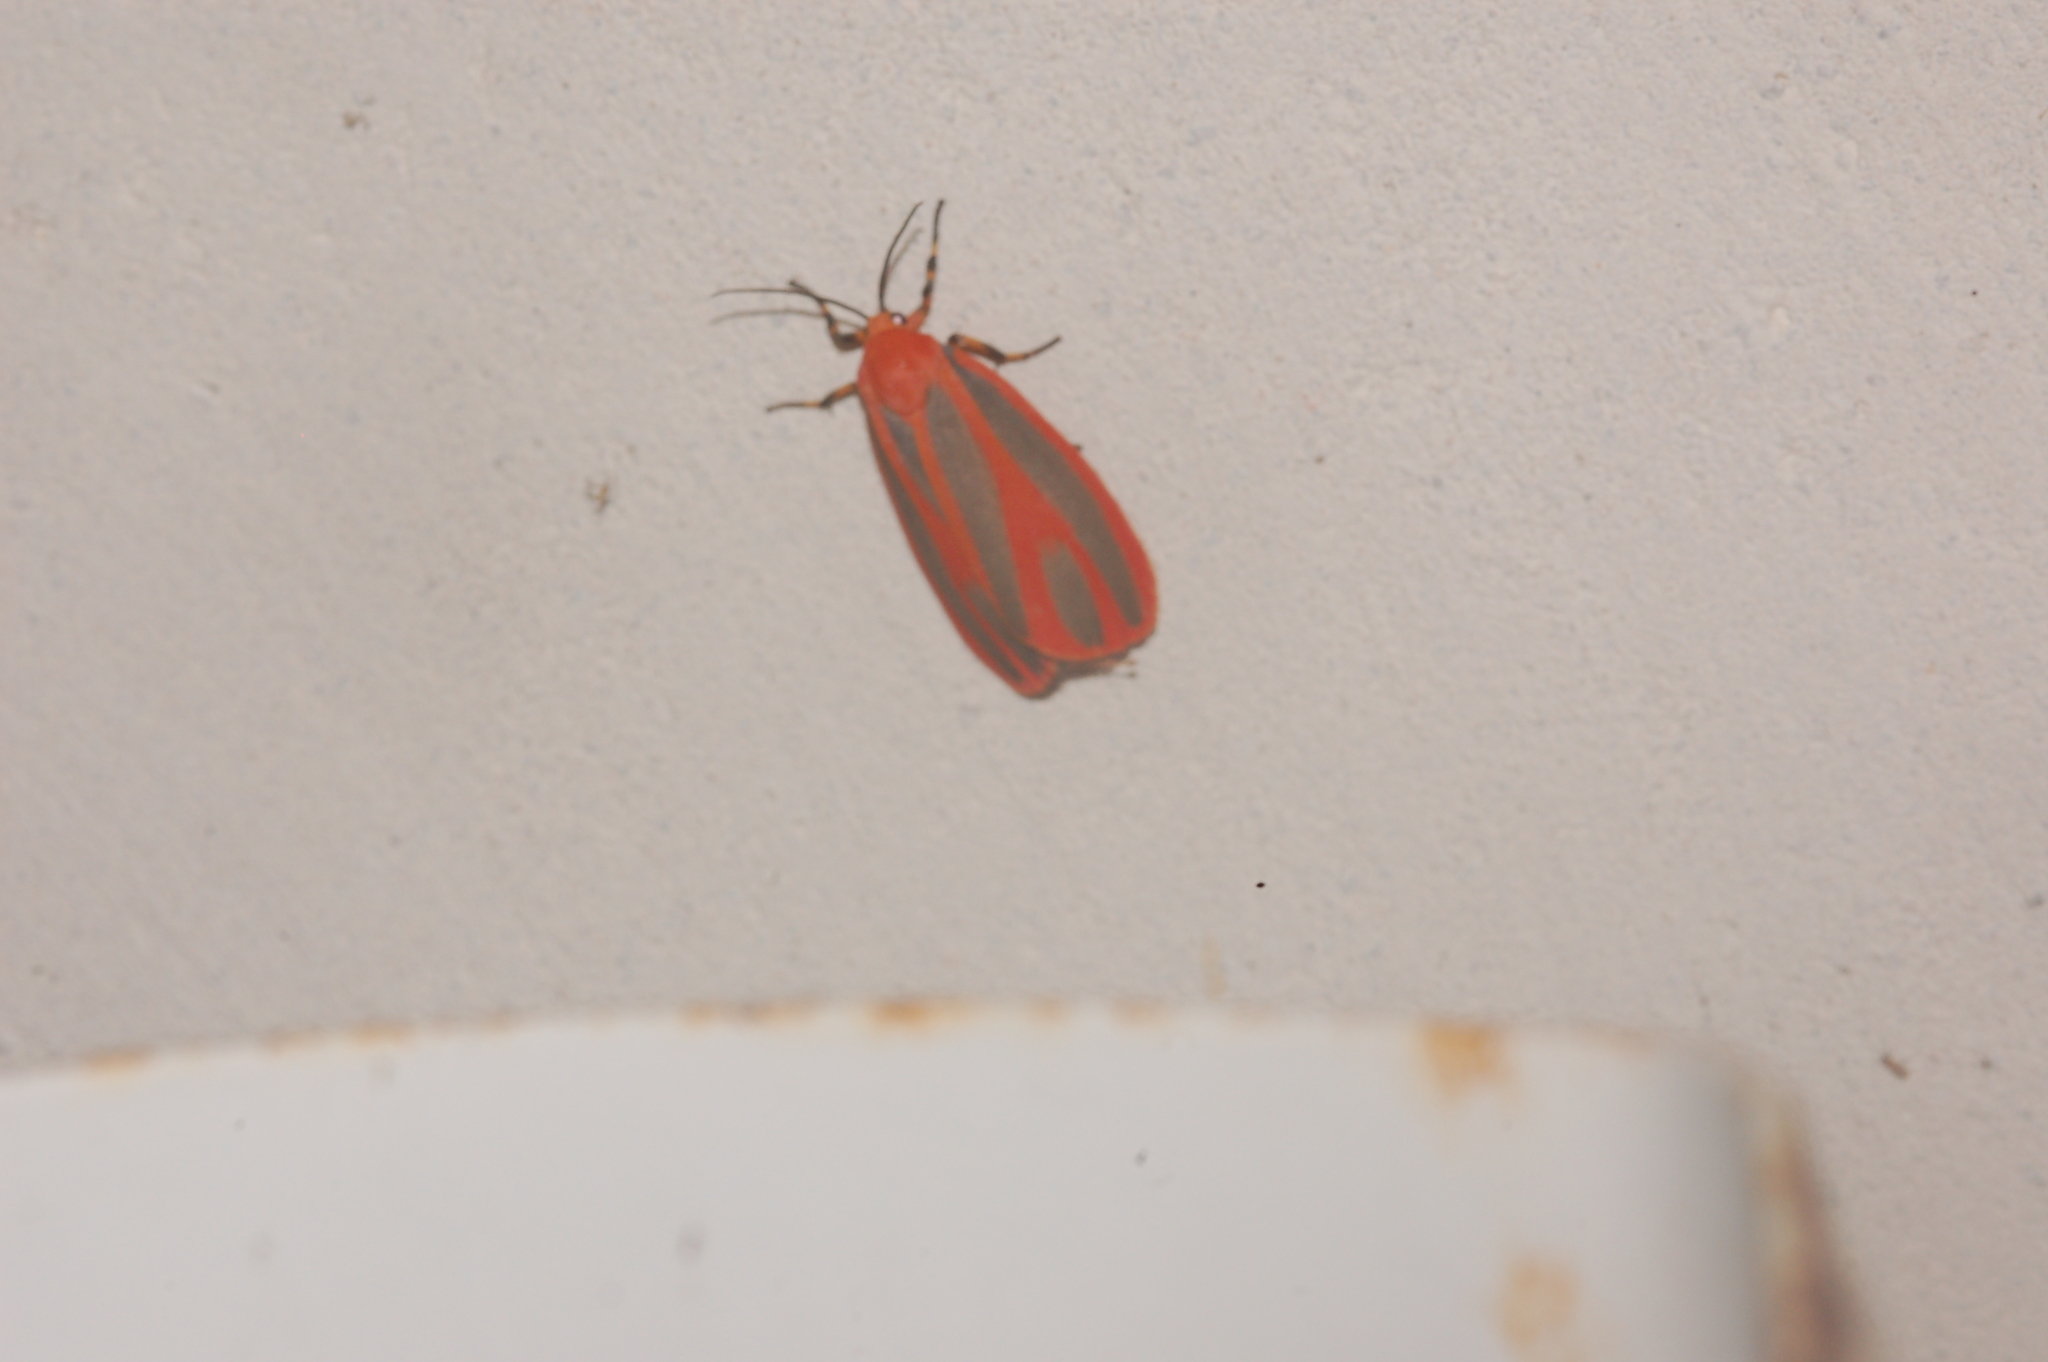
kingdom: Animalia
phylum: Arthropoda
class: Insecta
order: Lepidoptera
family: Erebidae
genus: Hypoprepia
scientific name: Hypoprepia miniata
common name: Scarlet-winged lichen moth
